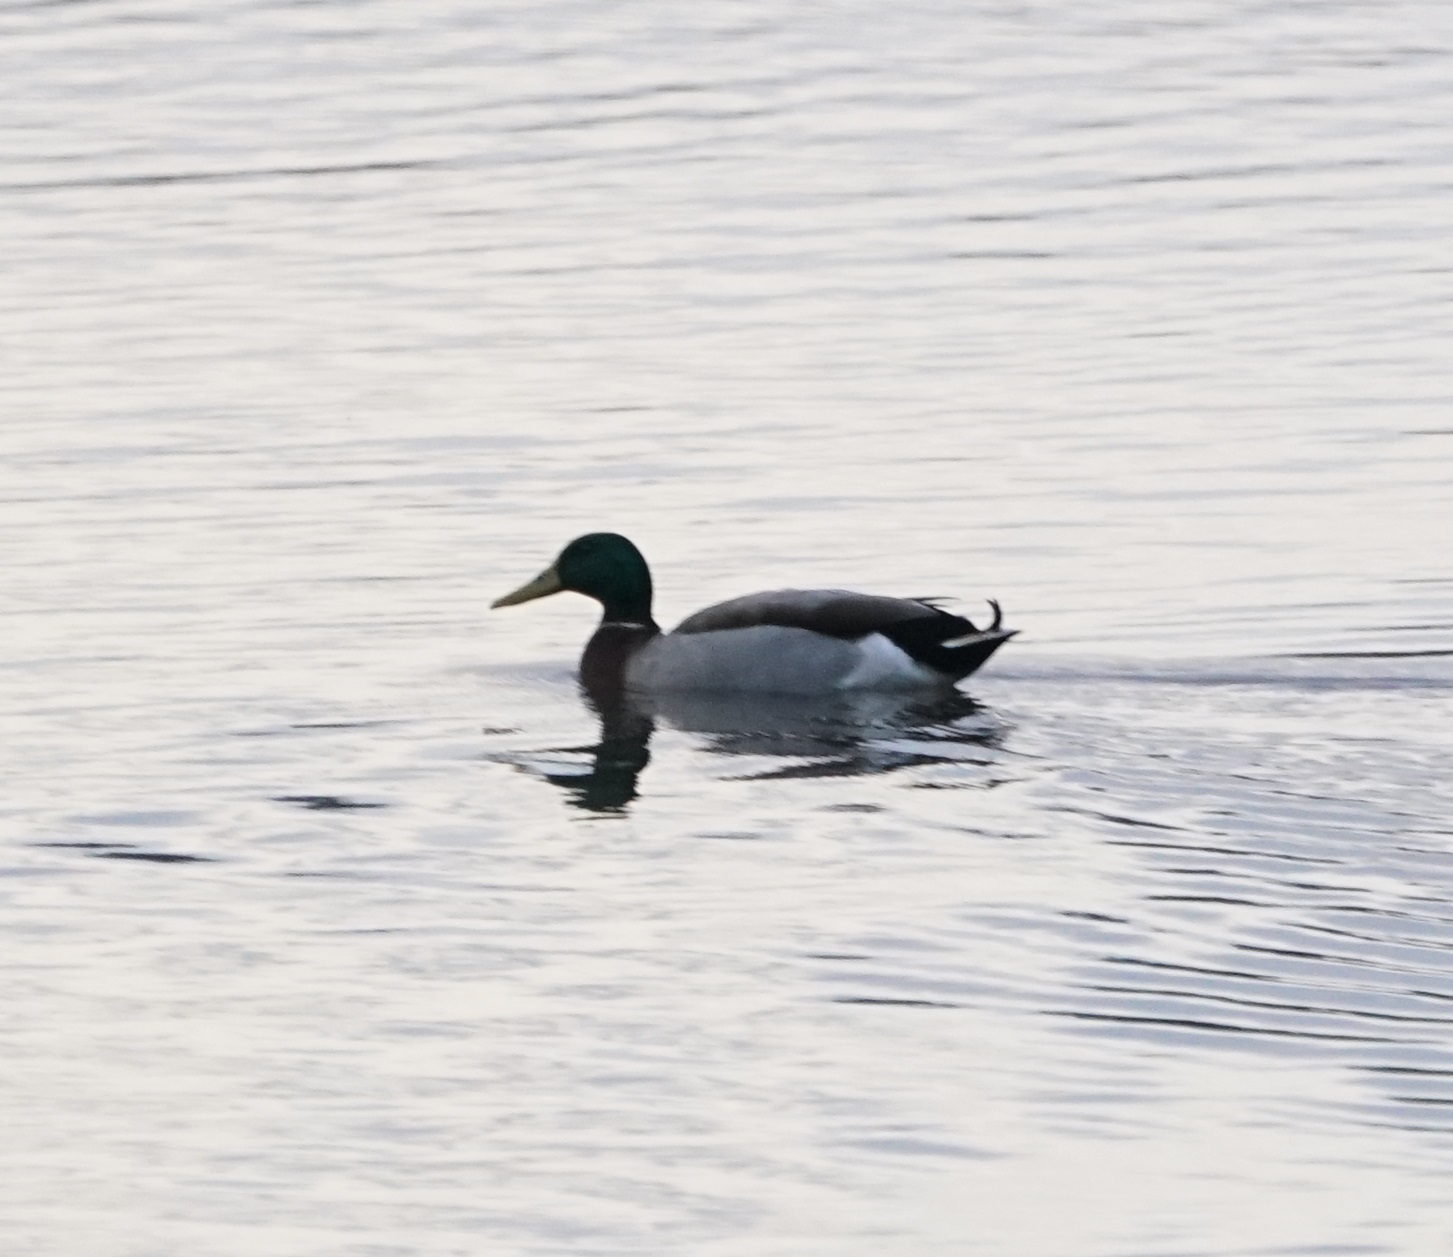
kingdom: Animalia
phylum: Chordata
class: Aves
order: Anseriformes
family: Anatidae
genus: Anas
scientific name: Anas platyrhynchos
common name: Mallard
